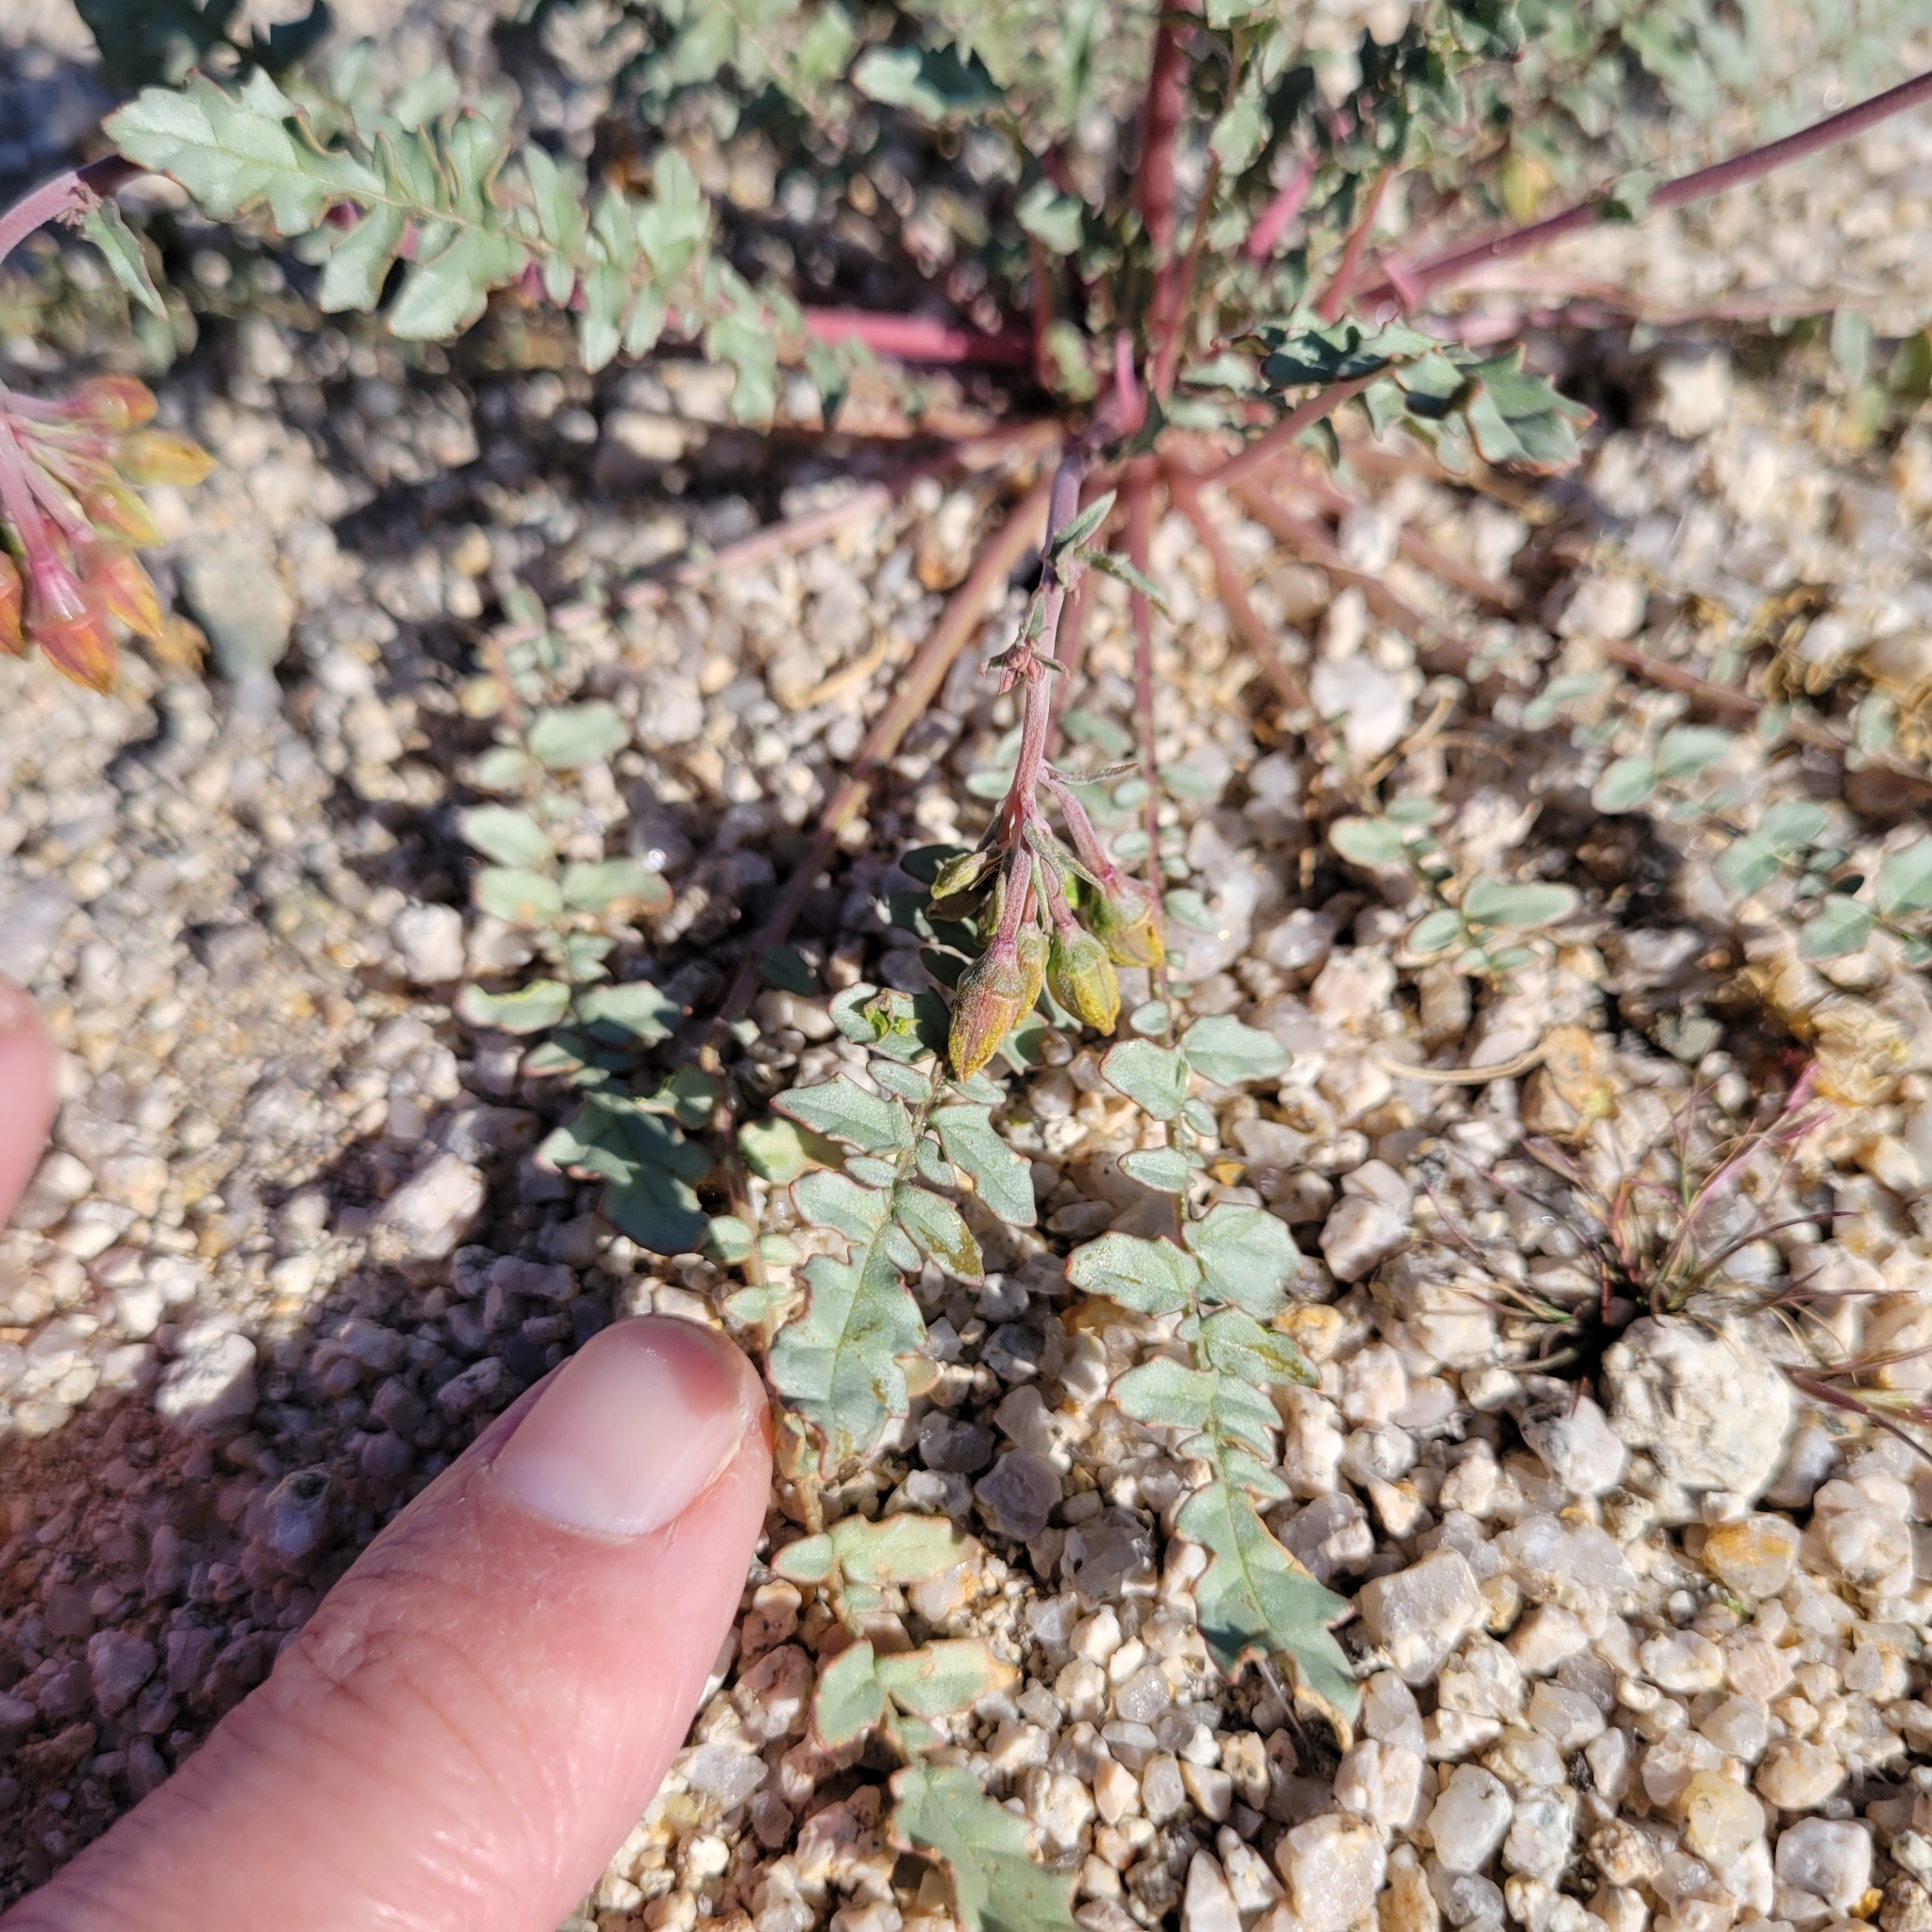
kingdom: Plantae
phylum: Tracheophyta
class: Magnoliopsida
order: Myrtales
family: Onagraceae
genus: Chylismia
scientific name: Chylismia claviformis
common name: Browneyes
